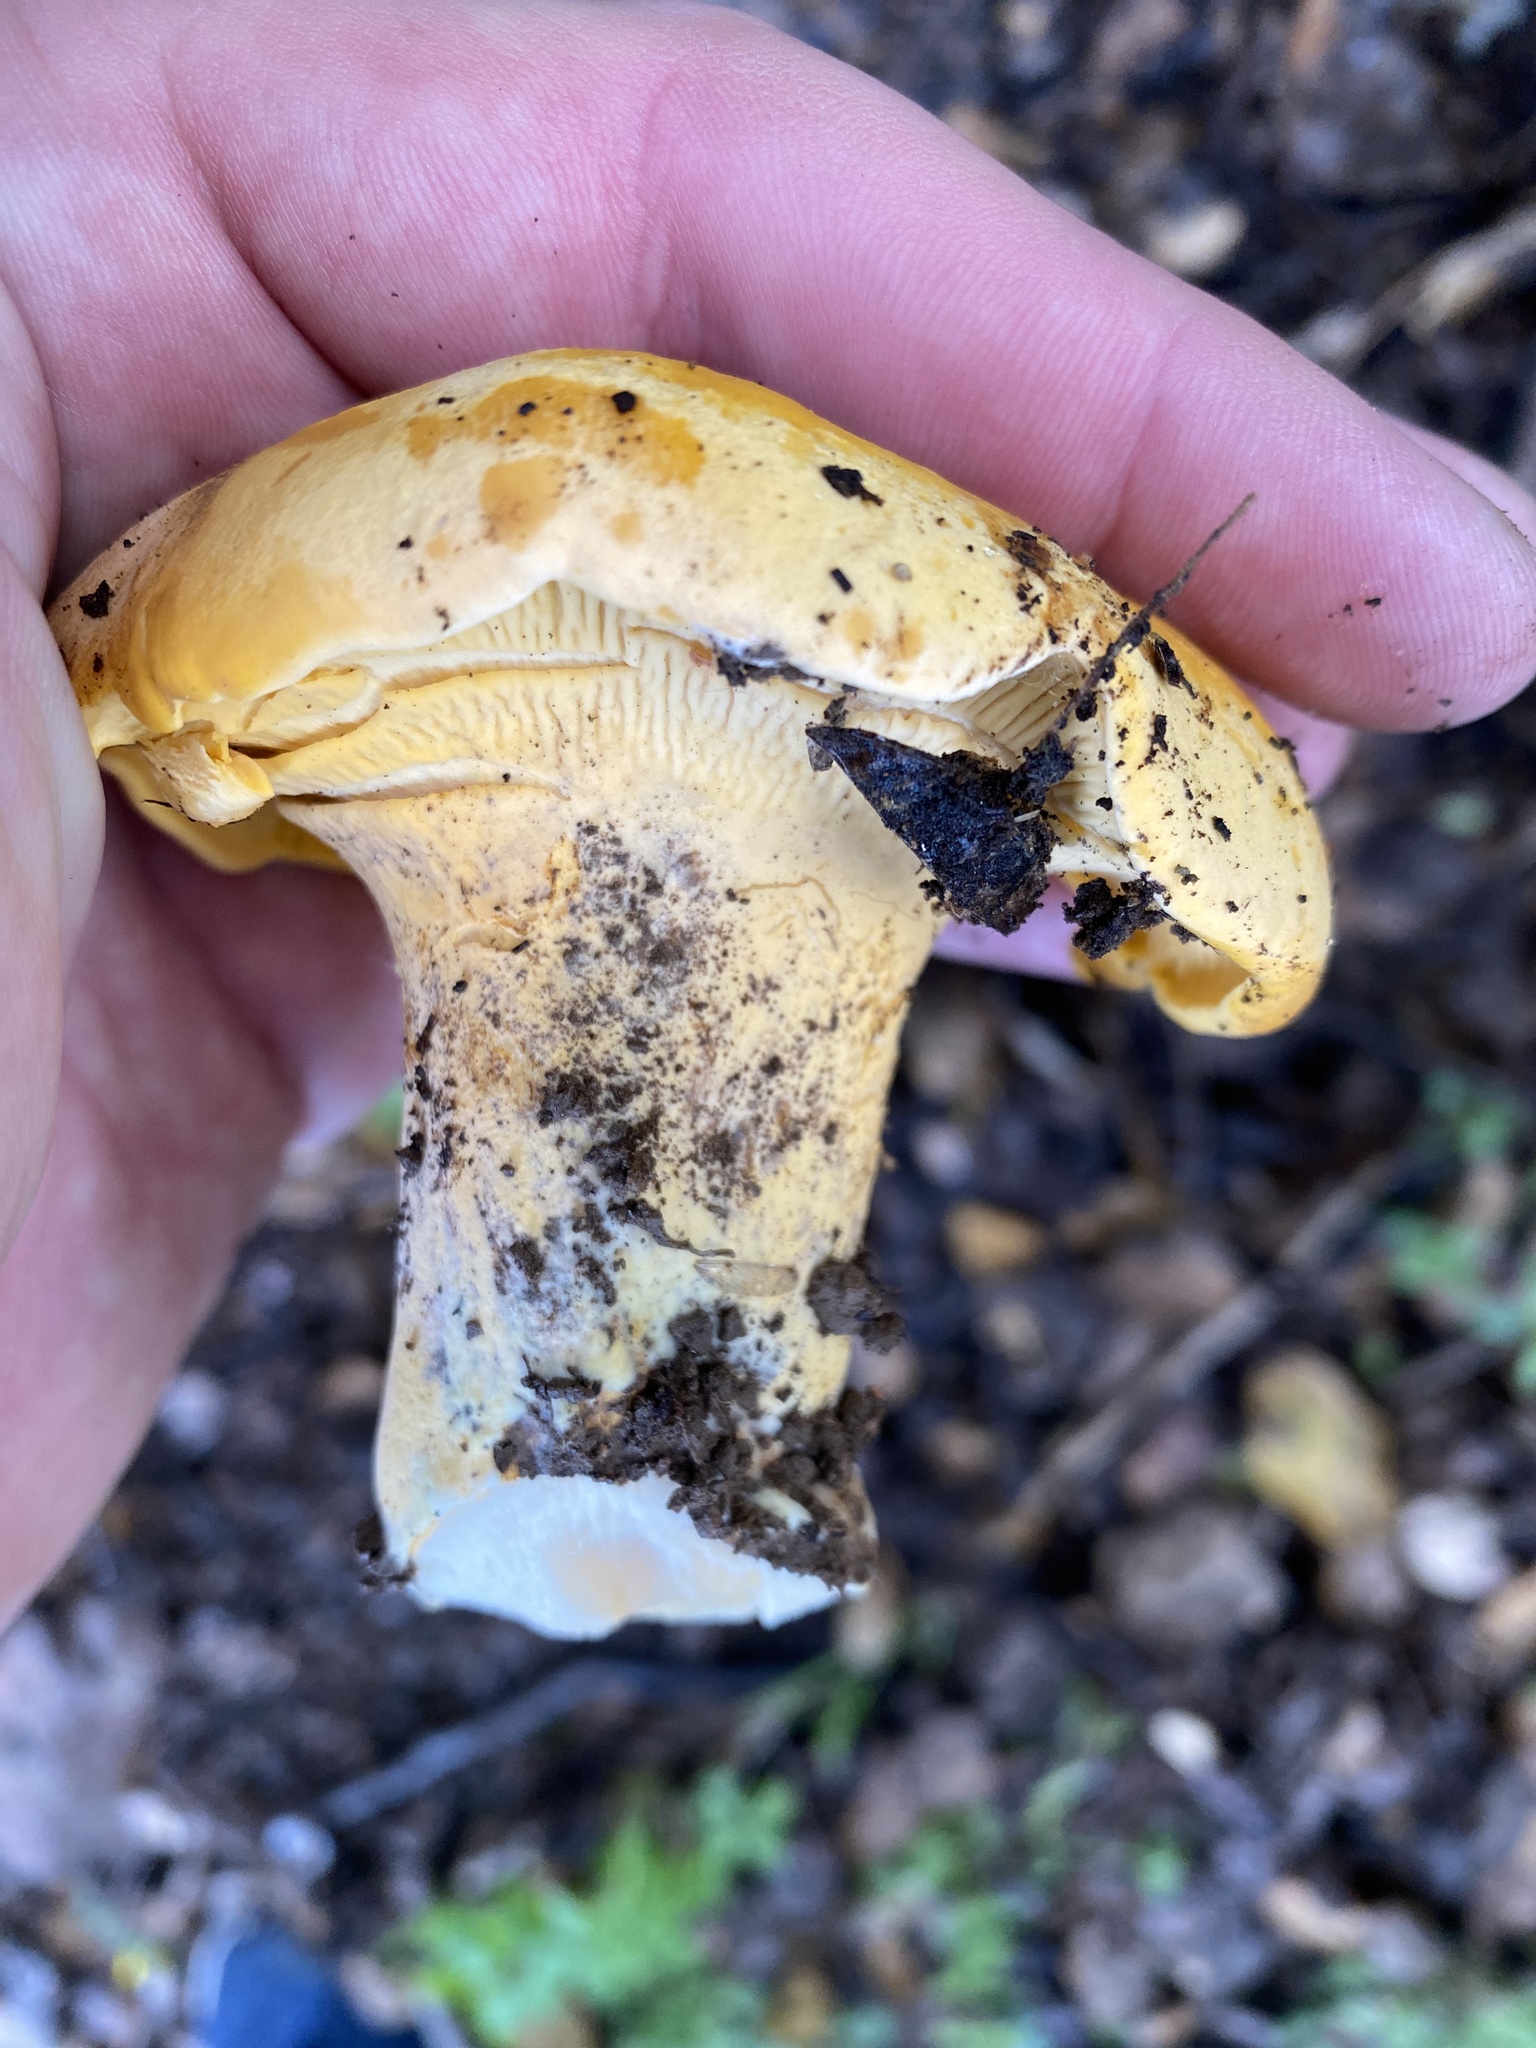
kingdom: Fungi
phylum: Basidiomycota
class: Agaricomycetes
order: Cantharellales
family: Hydnaceae
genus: Cantharellus
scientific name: Cantharellus californicus
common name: California golden chanterelle
